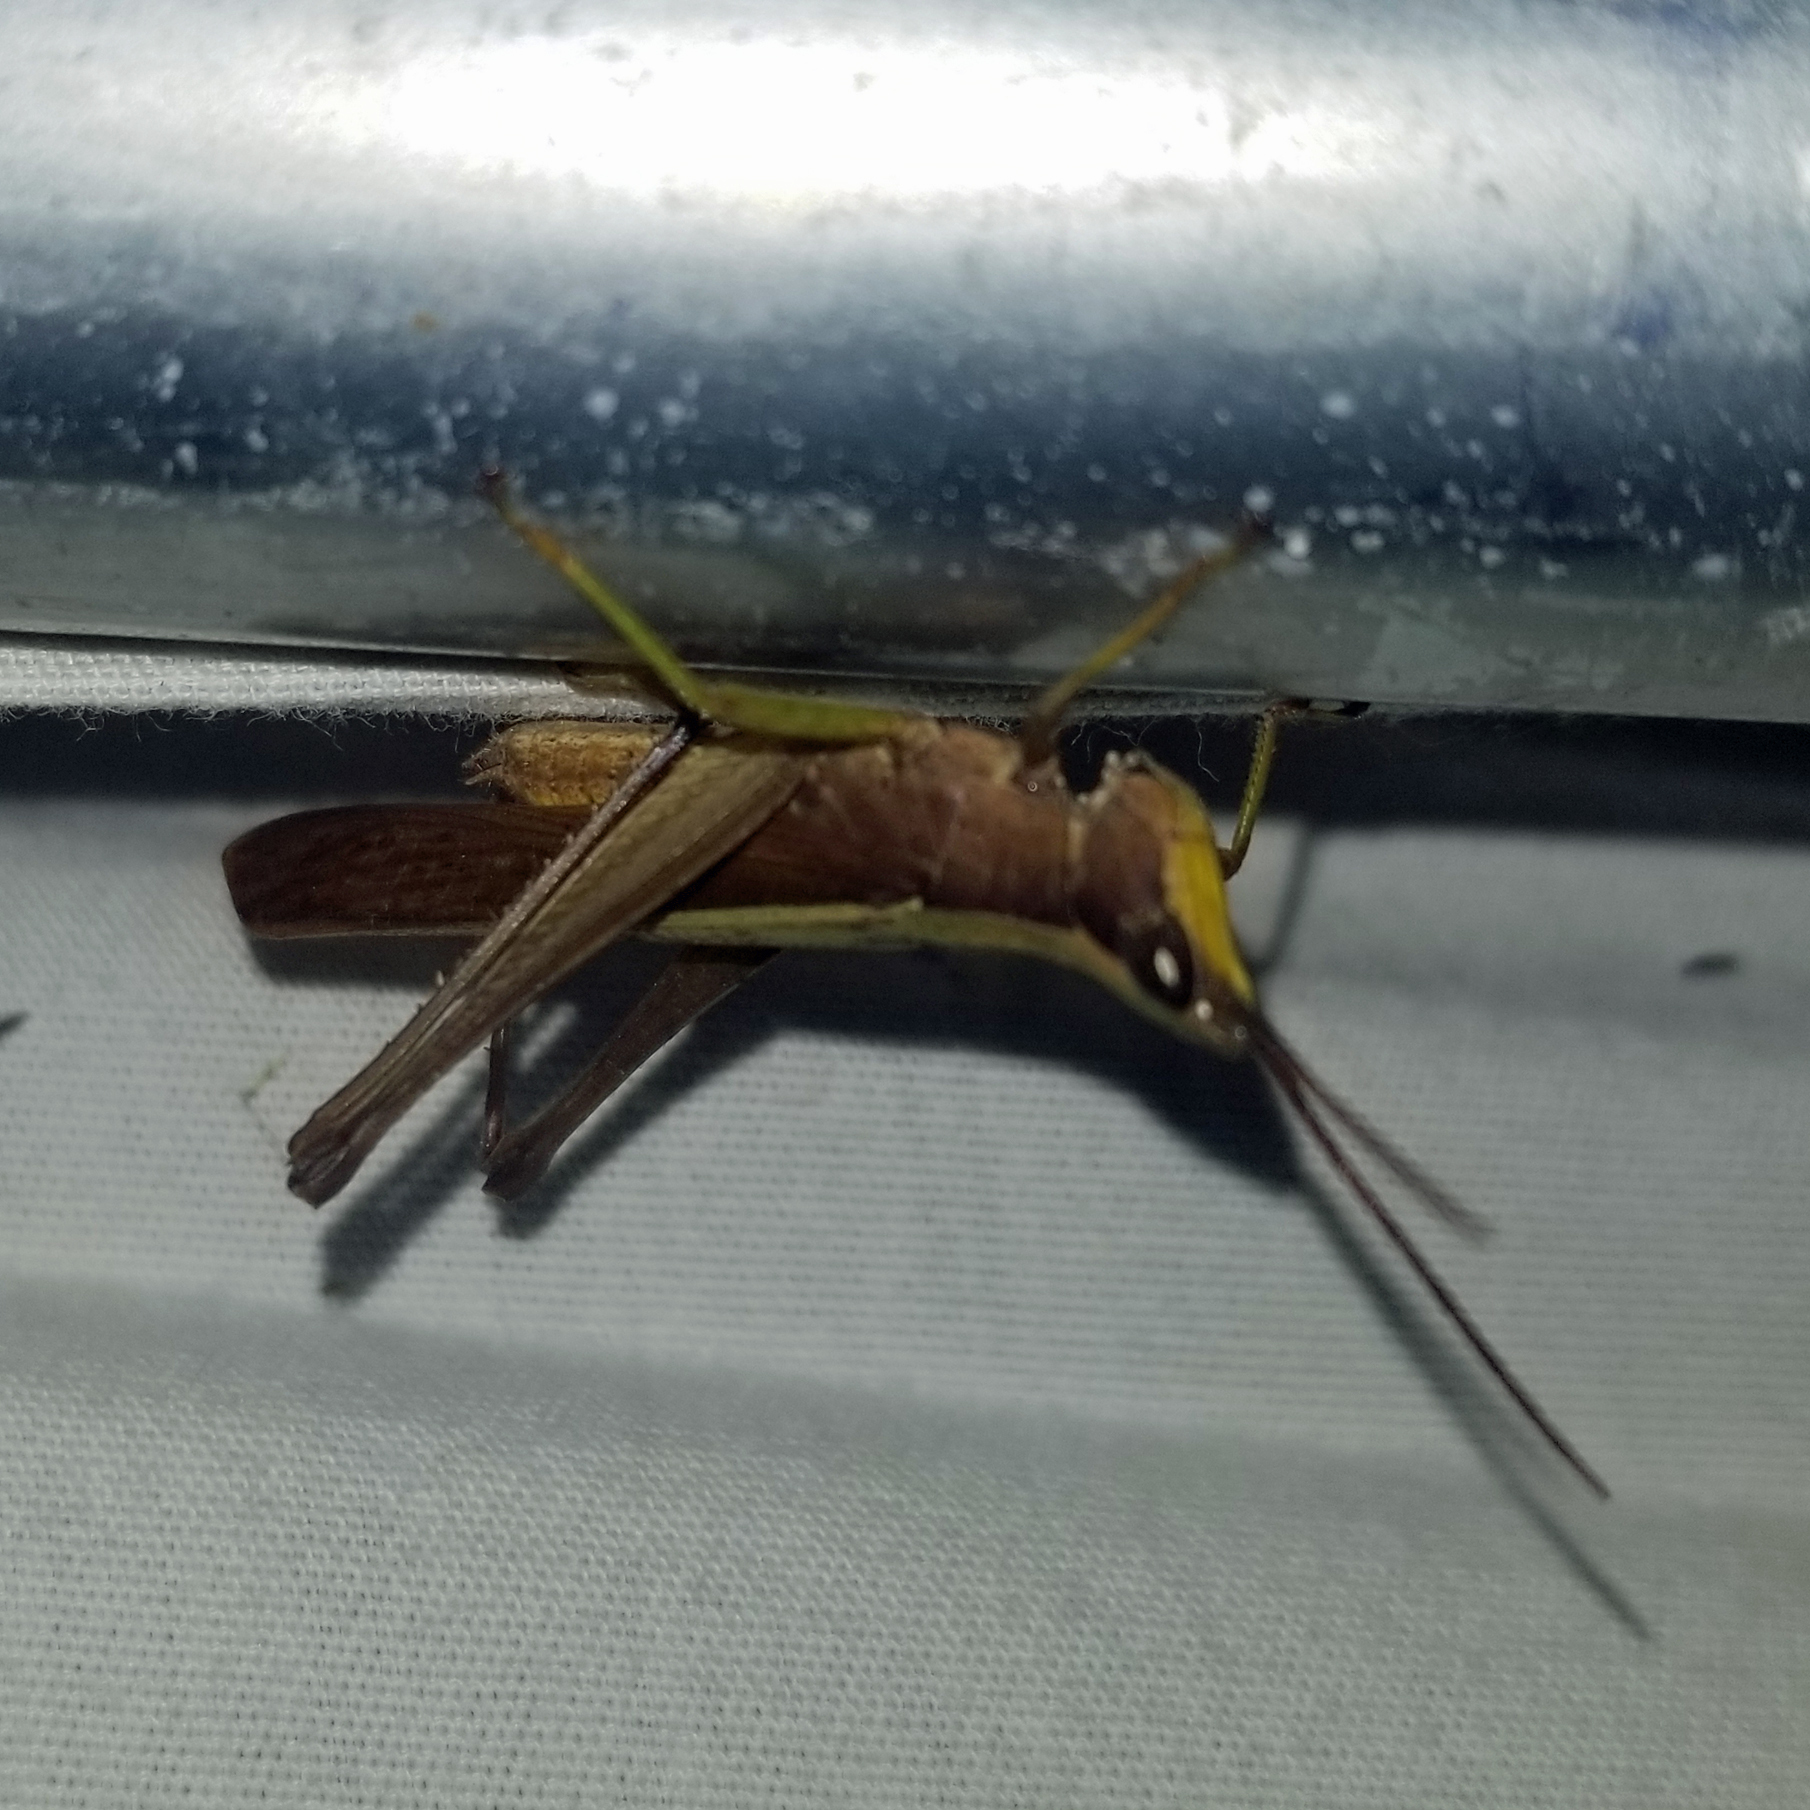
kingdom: Animalia
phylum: Arthropoda
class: Insecta
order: Orthoptera
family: Acrididae
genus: Metaleptea
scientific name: Metaleptea brevicornis
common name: Clipped-wing grasshopper
